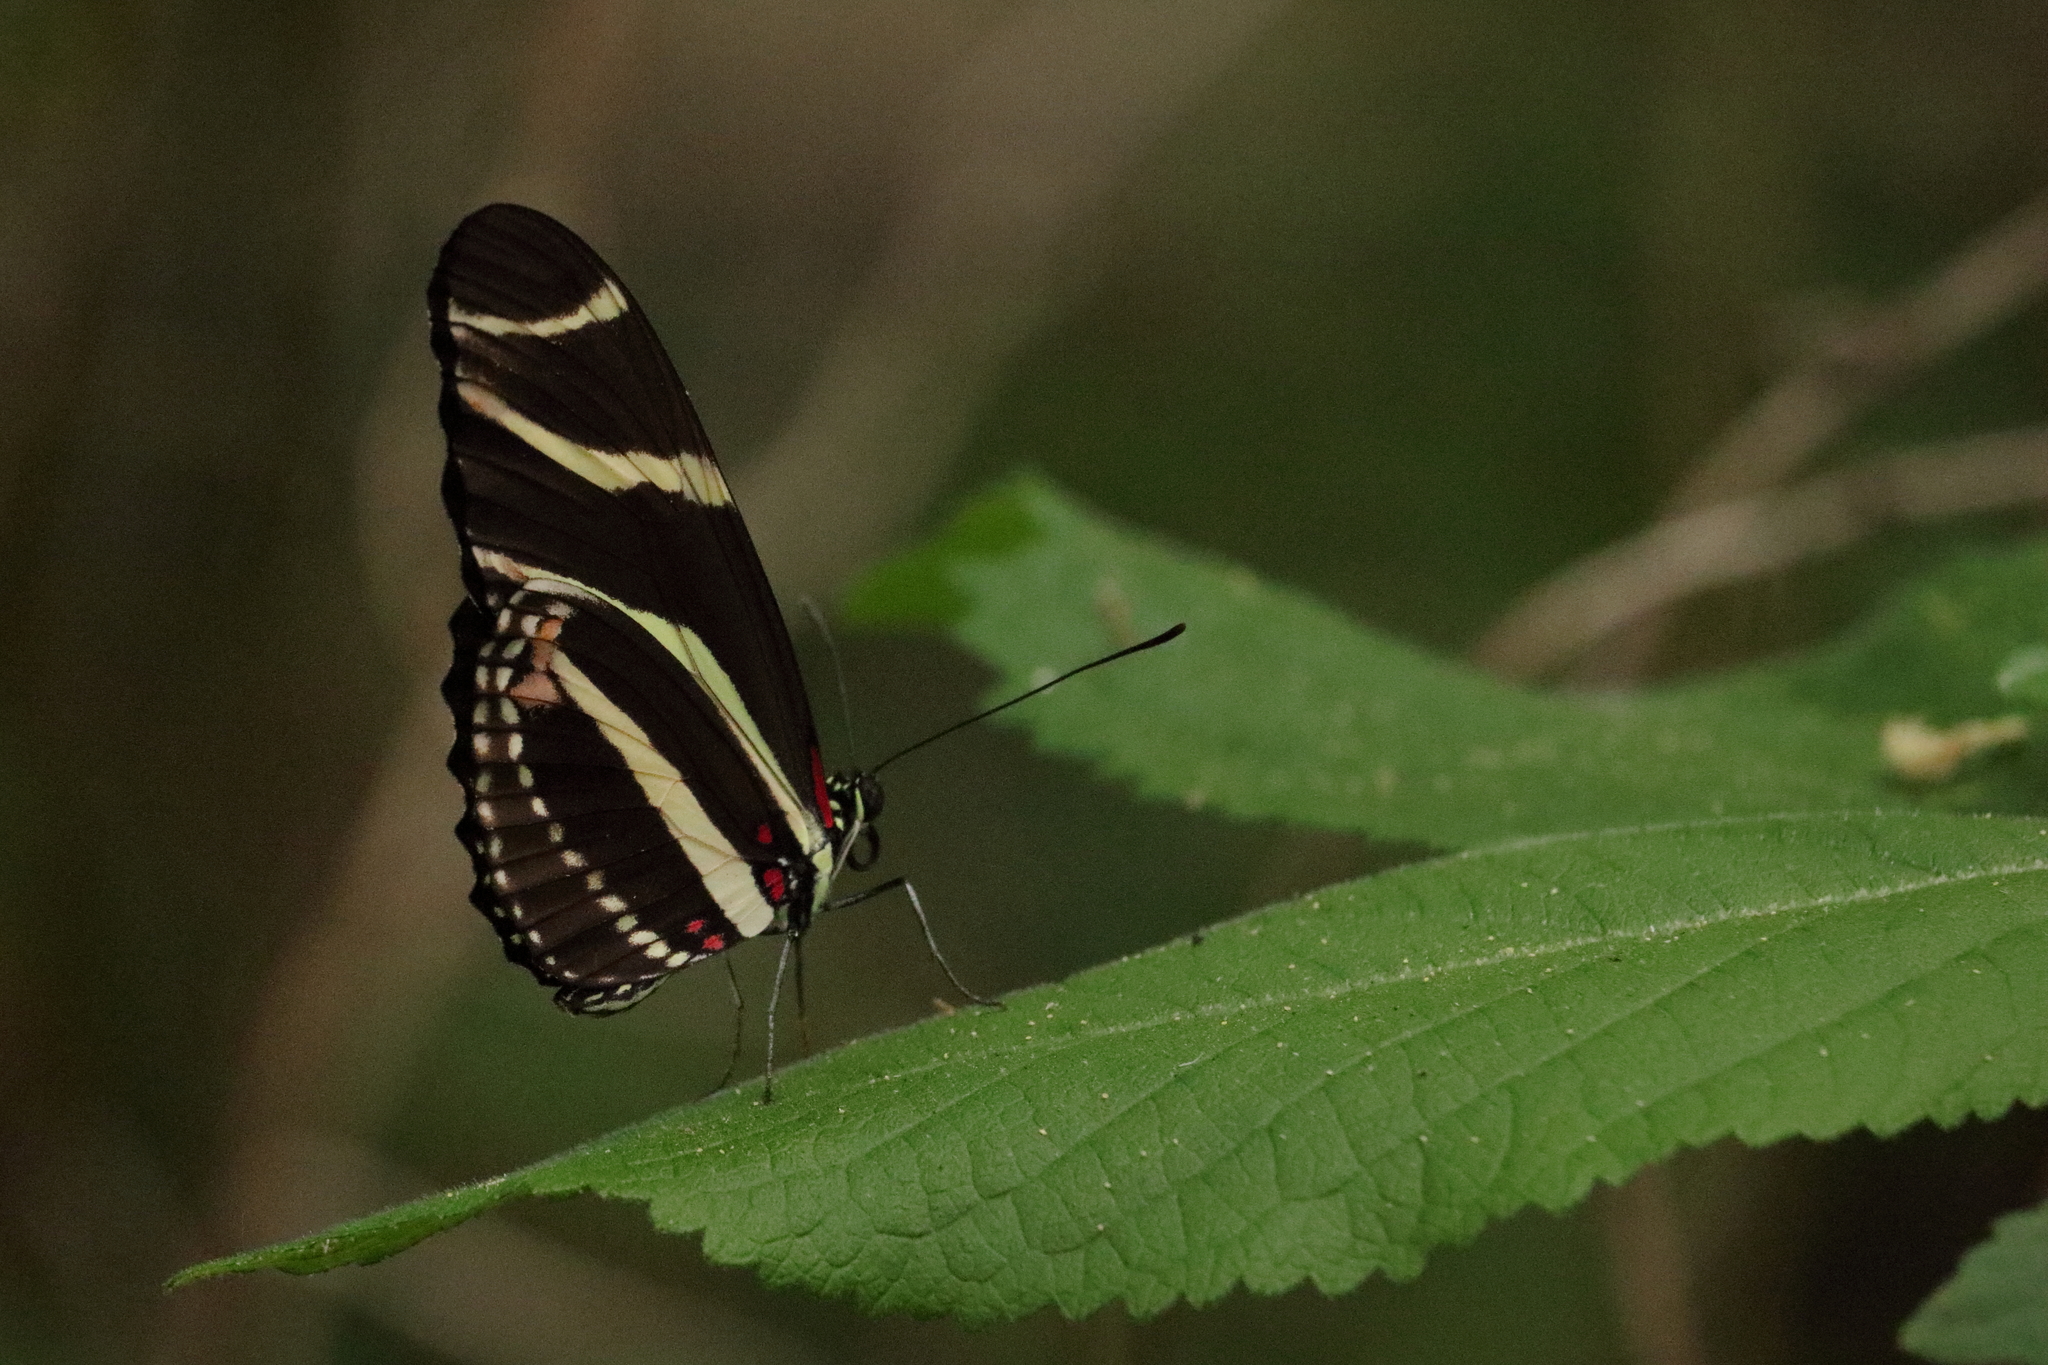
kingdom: Animalia
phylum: Arthropoda
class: Insecta
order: Lepidoptera
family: Nymphalidae
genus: Heliconius
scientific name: Heliconius charithonia
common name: Zebra long wing
